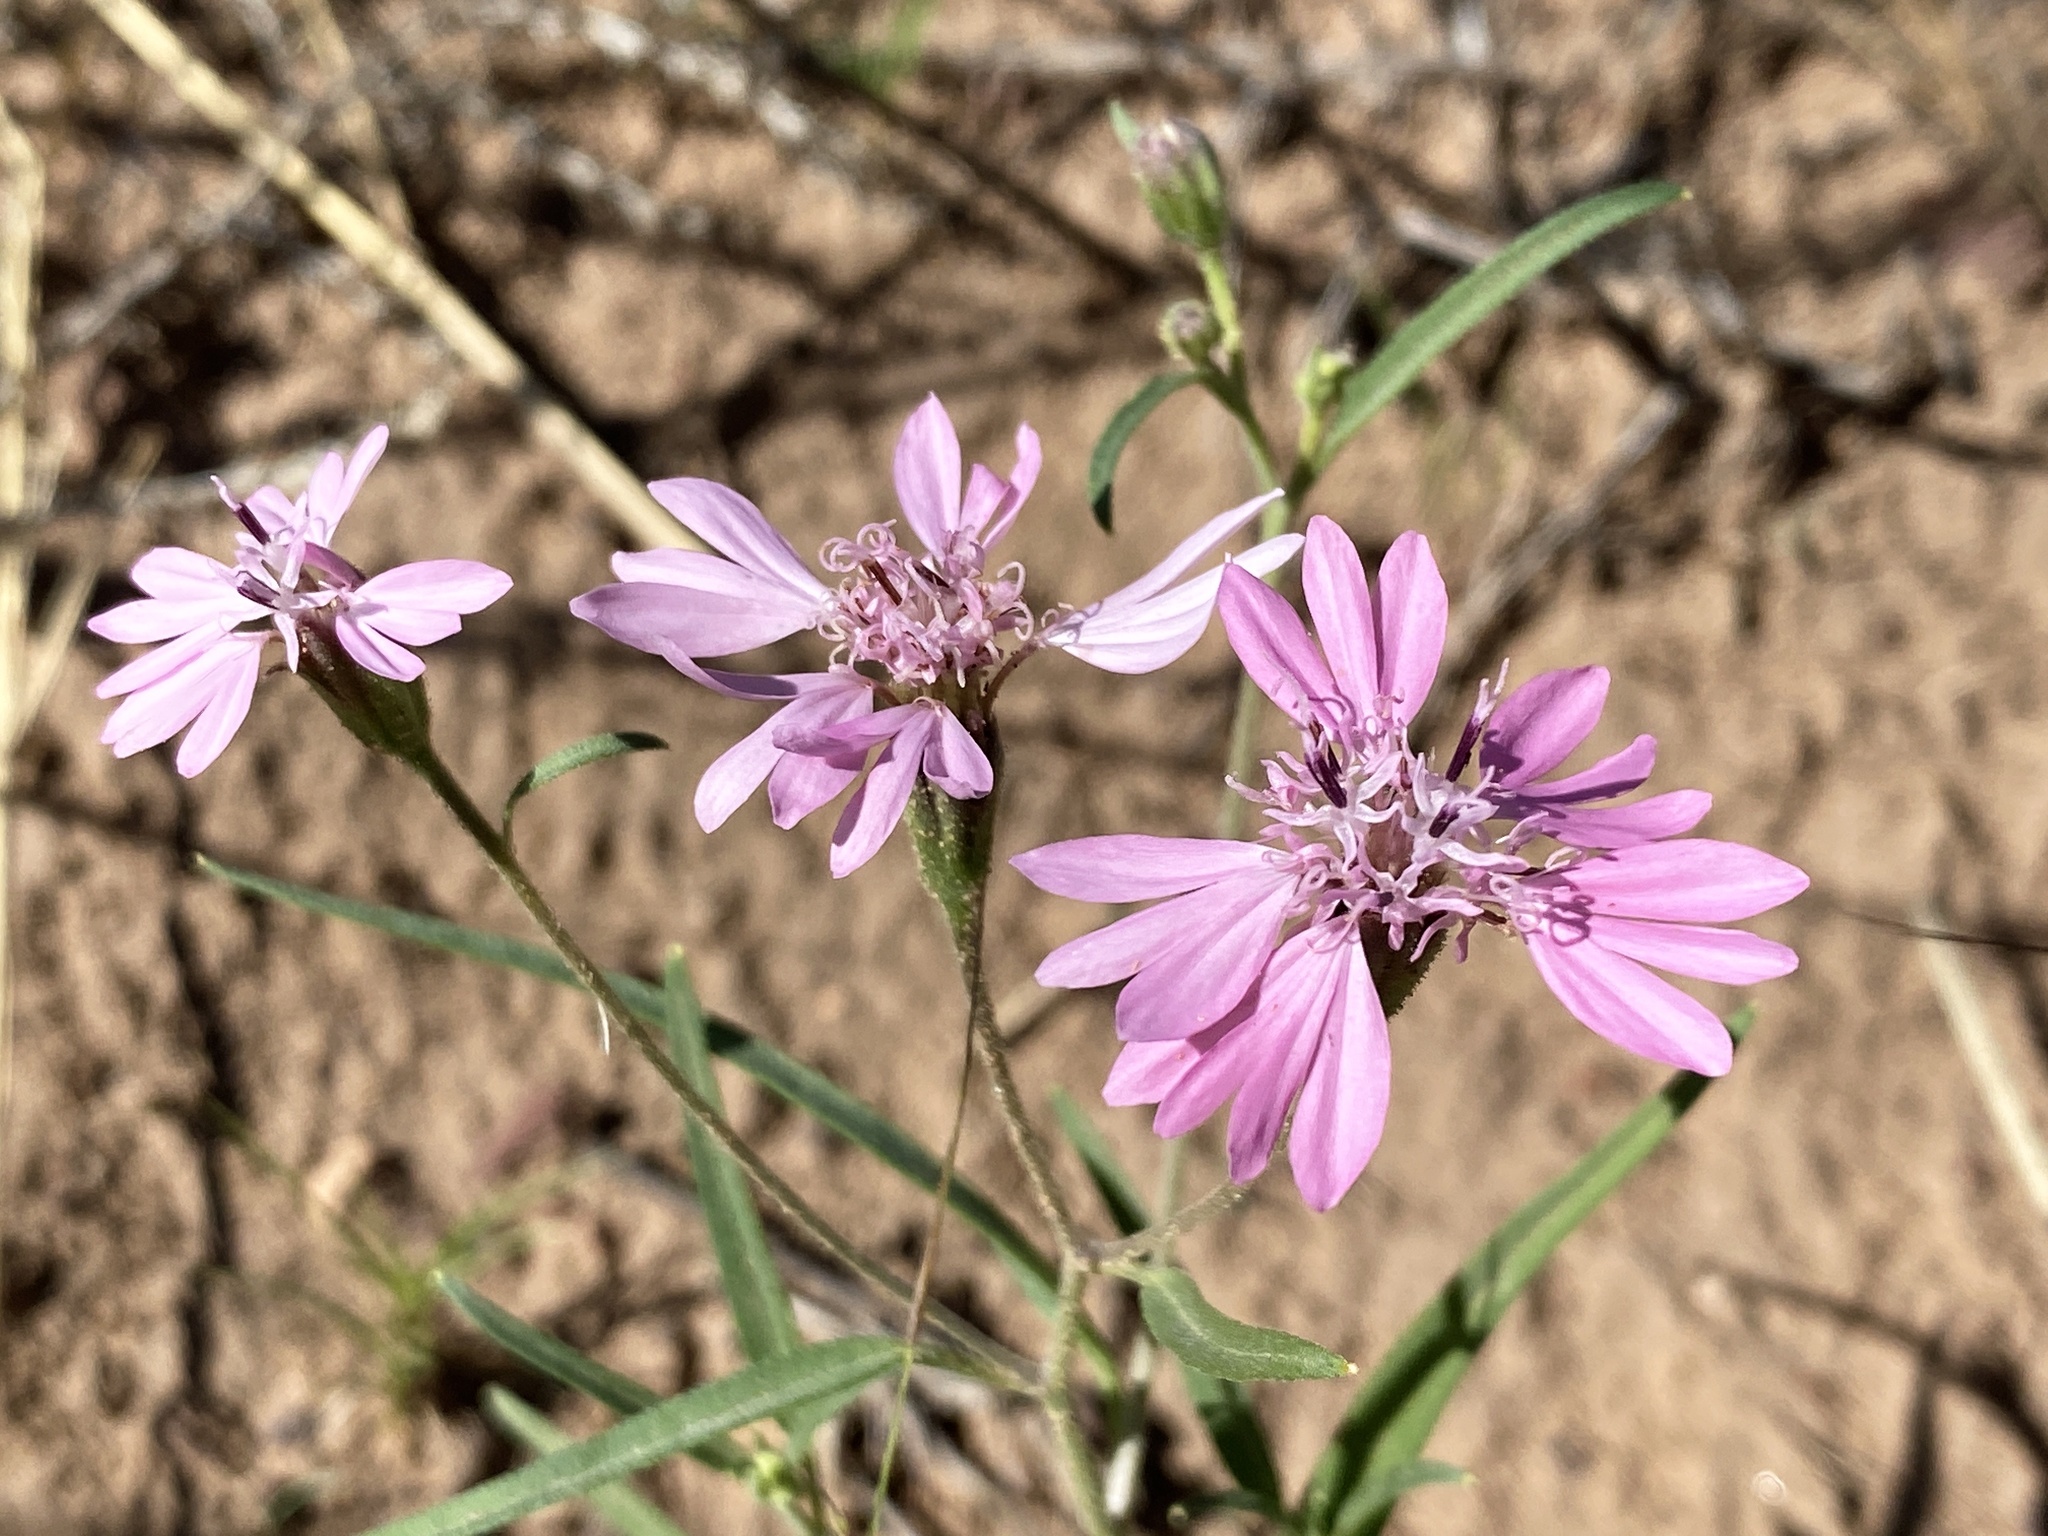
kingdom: Plantae
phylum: Tracheophyta
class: Magnoliopsida
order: Asterales
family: Asteraceae
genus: Palafoxia
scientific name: Palafoxia sphacelata
